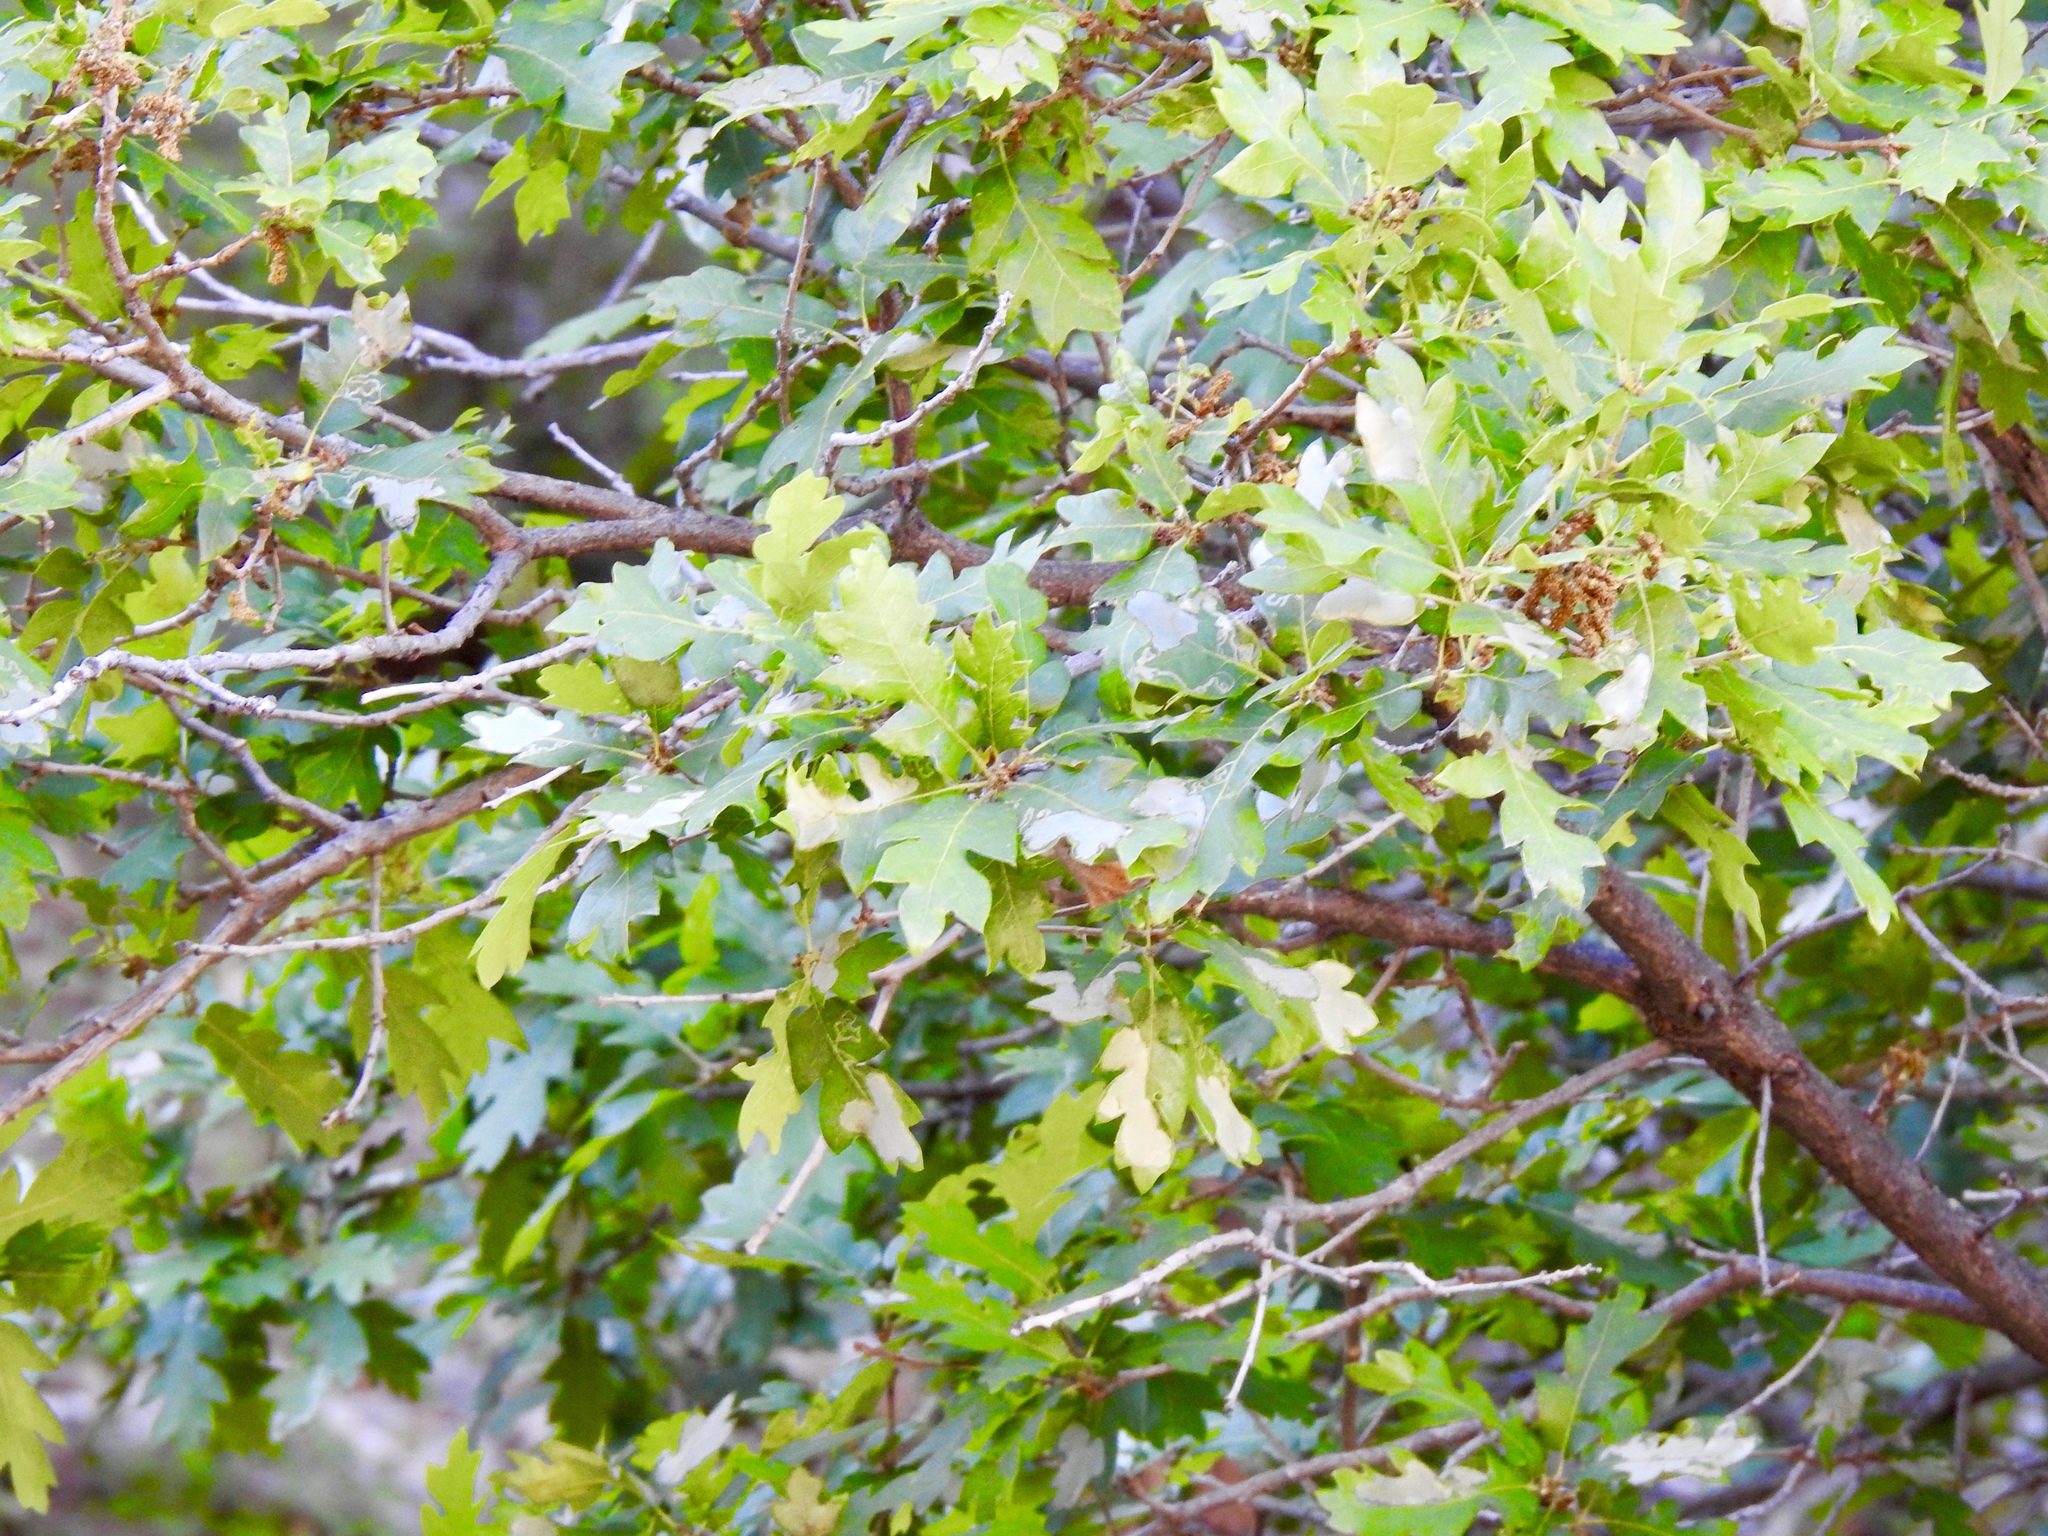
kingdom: Plantae
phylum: Tracheophyta
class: Magnoliopsida
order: Fagales
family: Fagaceae
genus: Quercus
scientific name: Quercus gambelii
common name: Gambel oak
